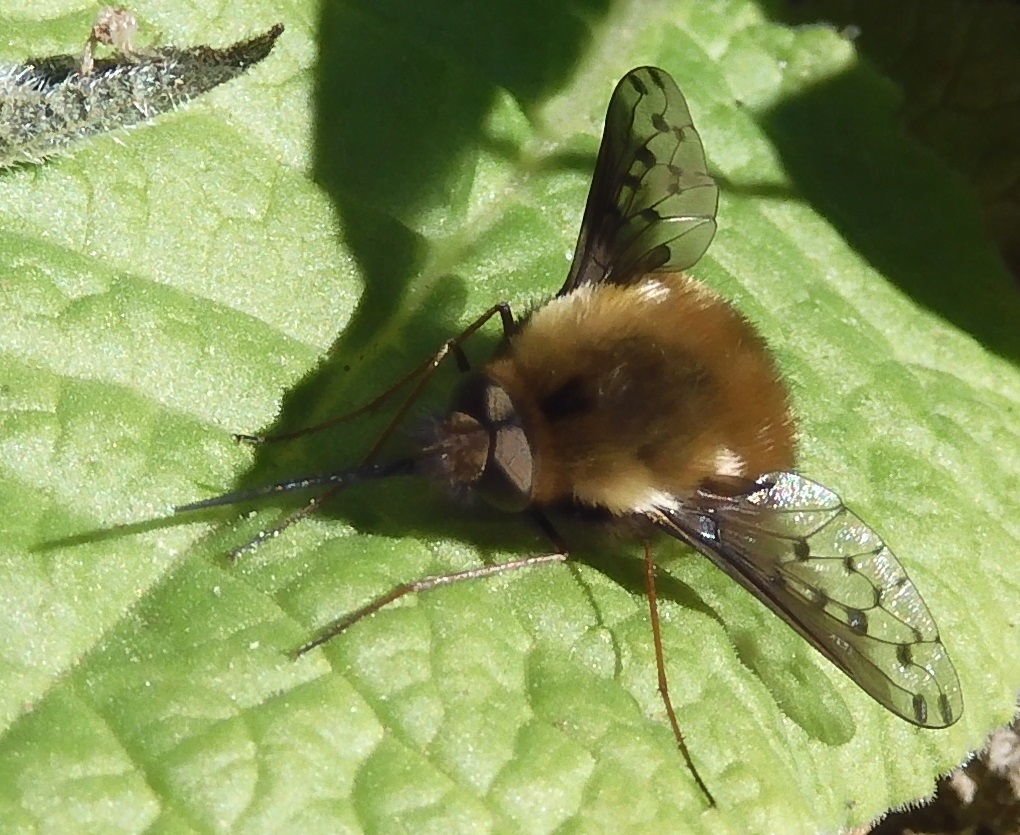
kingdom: Animalia
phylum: Arthropoda
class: Insecta
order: Diptera
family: Bombyliidae
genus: Bombylius
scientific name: Bombylius discolor
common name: Dotted bee-fly
